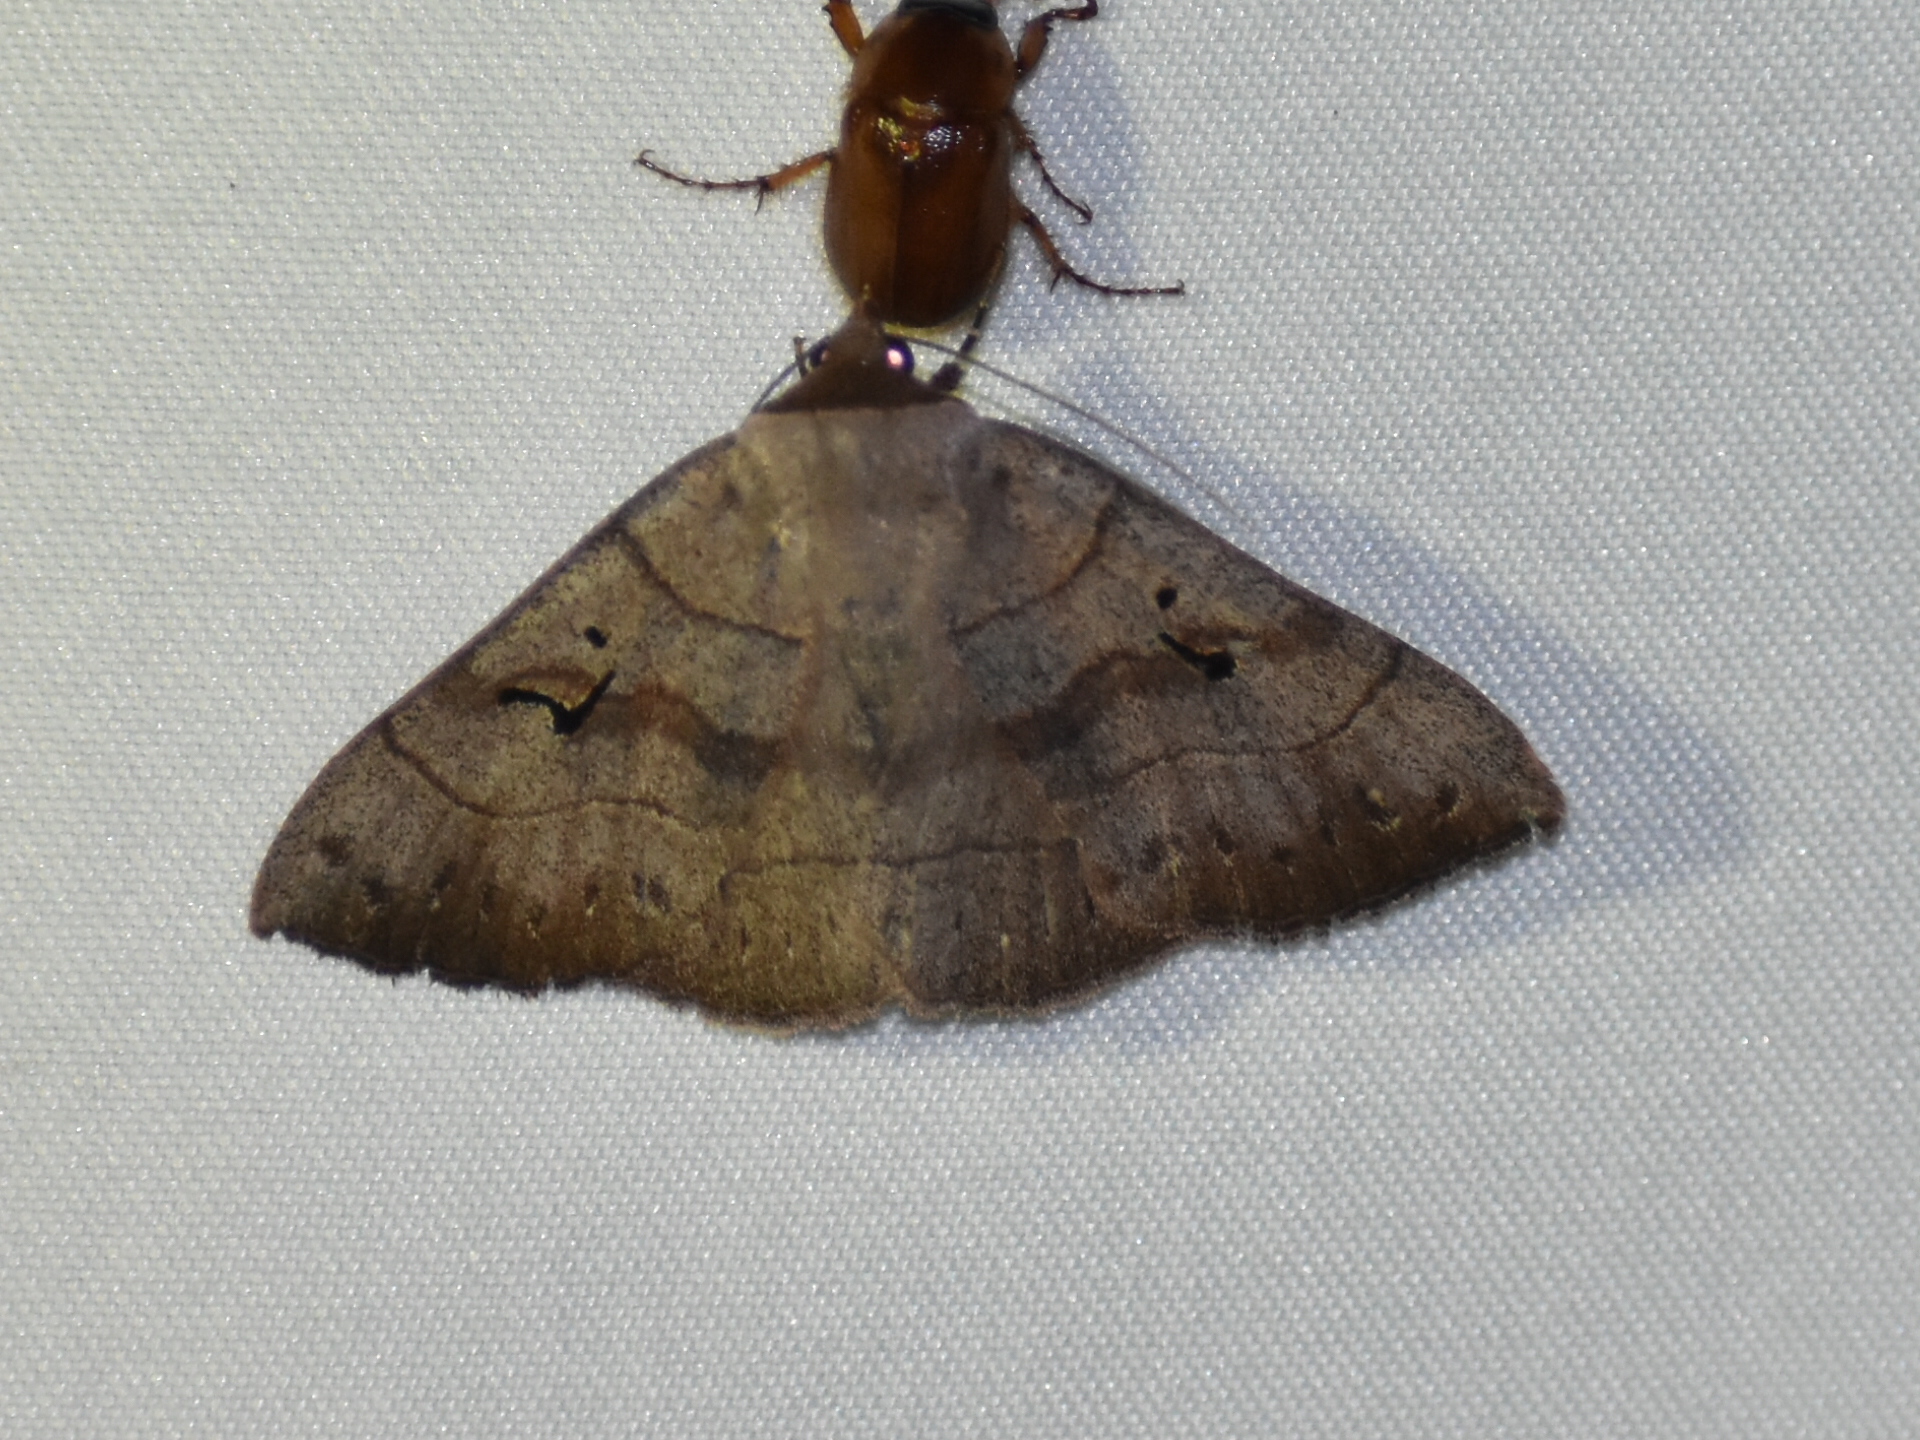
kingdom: Animalia
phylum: Arthropoda
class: Insecta
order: Lepidoptera
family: Erebidae
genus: Panopoda
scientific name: Panopoda carneicosta
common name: Brown panopoda moth
